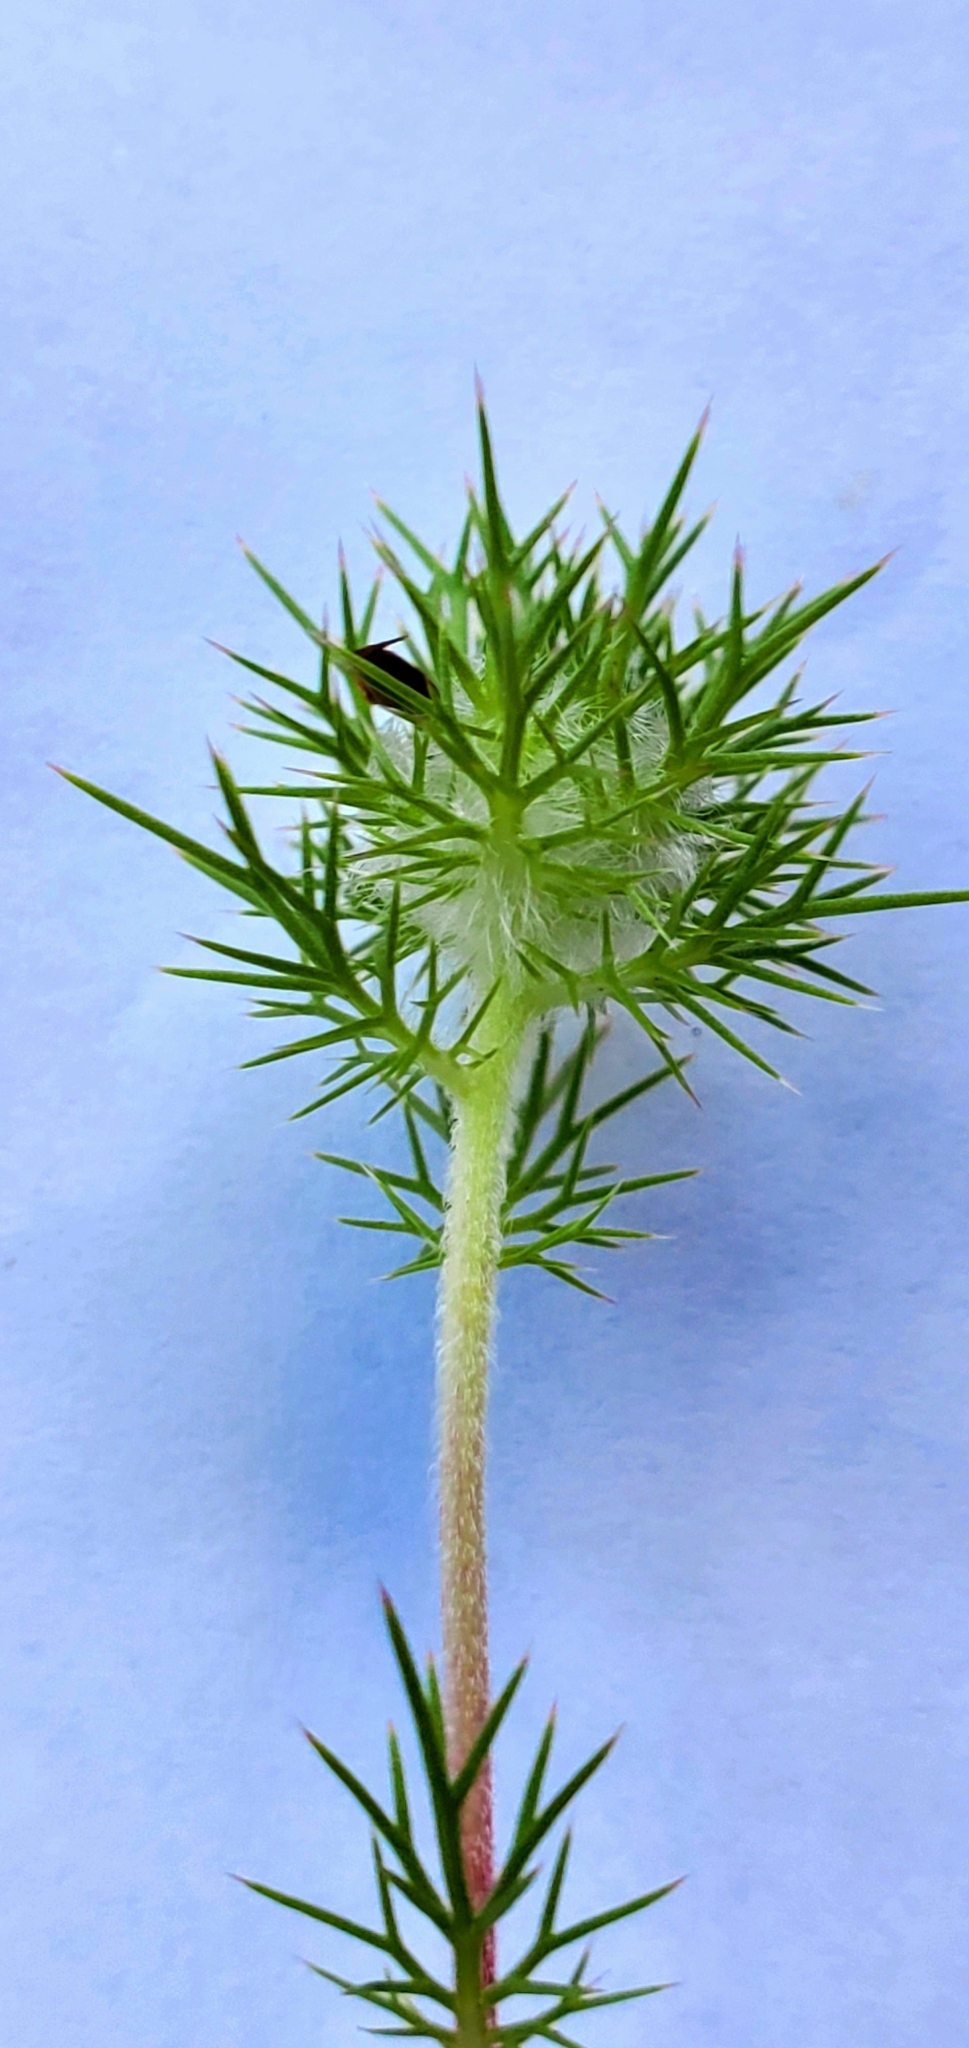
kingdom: Plantae
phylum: Tracheophyta
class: Magnoliopsida
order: Ericales
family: Polemoniaceae
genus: Navarretia
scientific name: Navarretia intertexta
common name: Needle-leaved navarretia
